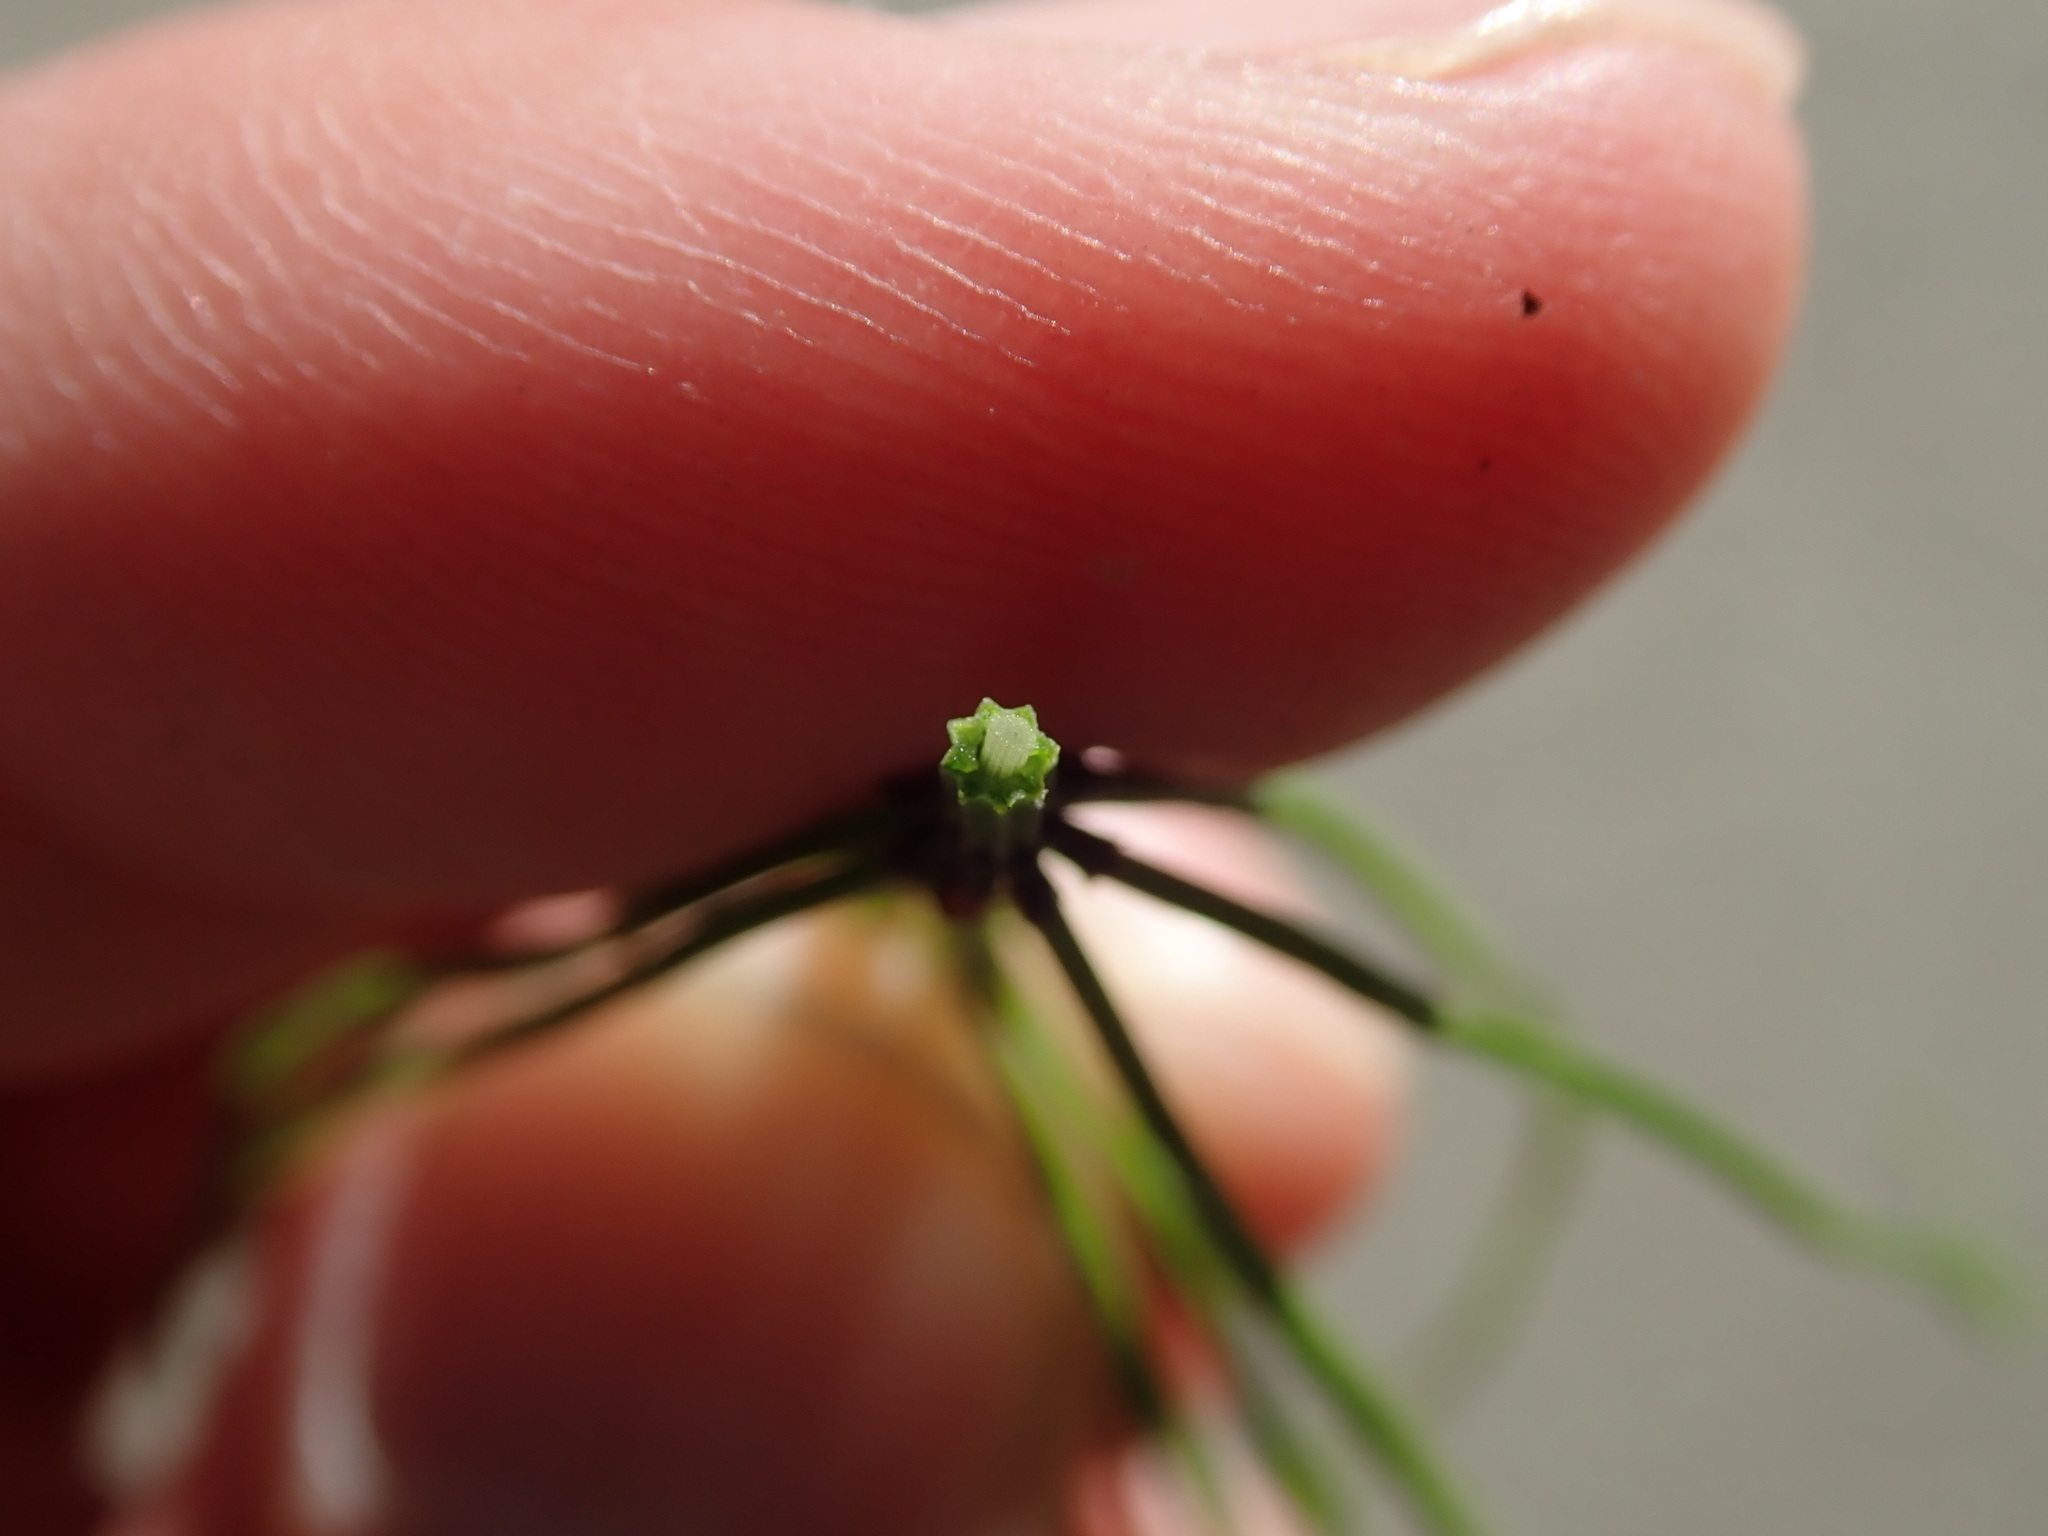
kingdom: Plantae
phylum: Tracheophyta
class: Polypodiopsida
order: Equisetales
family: Equisetaceae
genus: Equisetum
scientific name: Equisetum arvense
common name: Field horsetail
